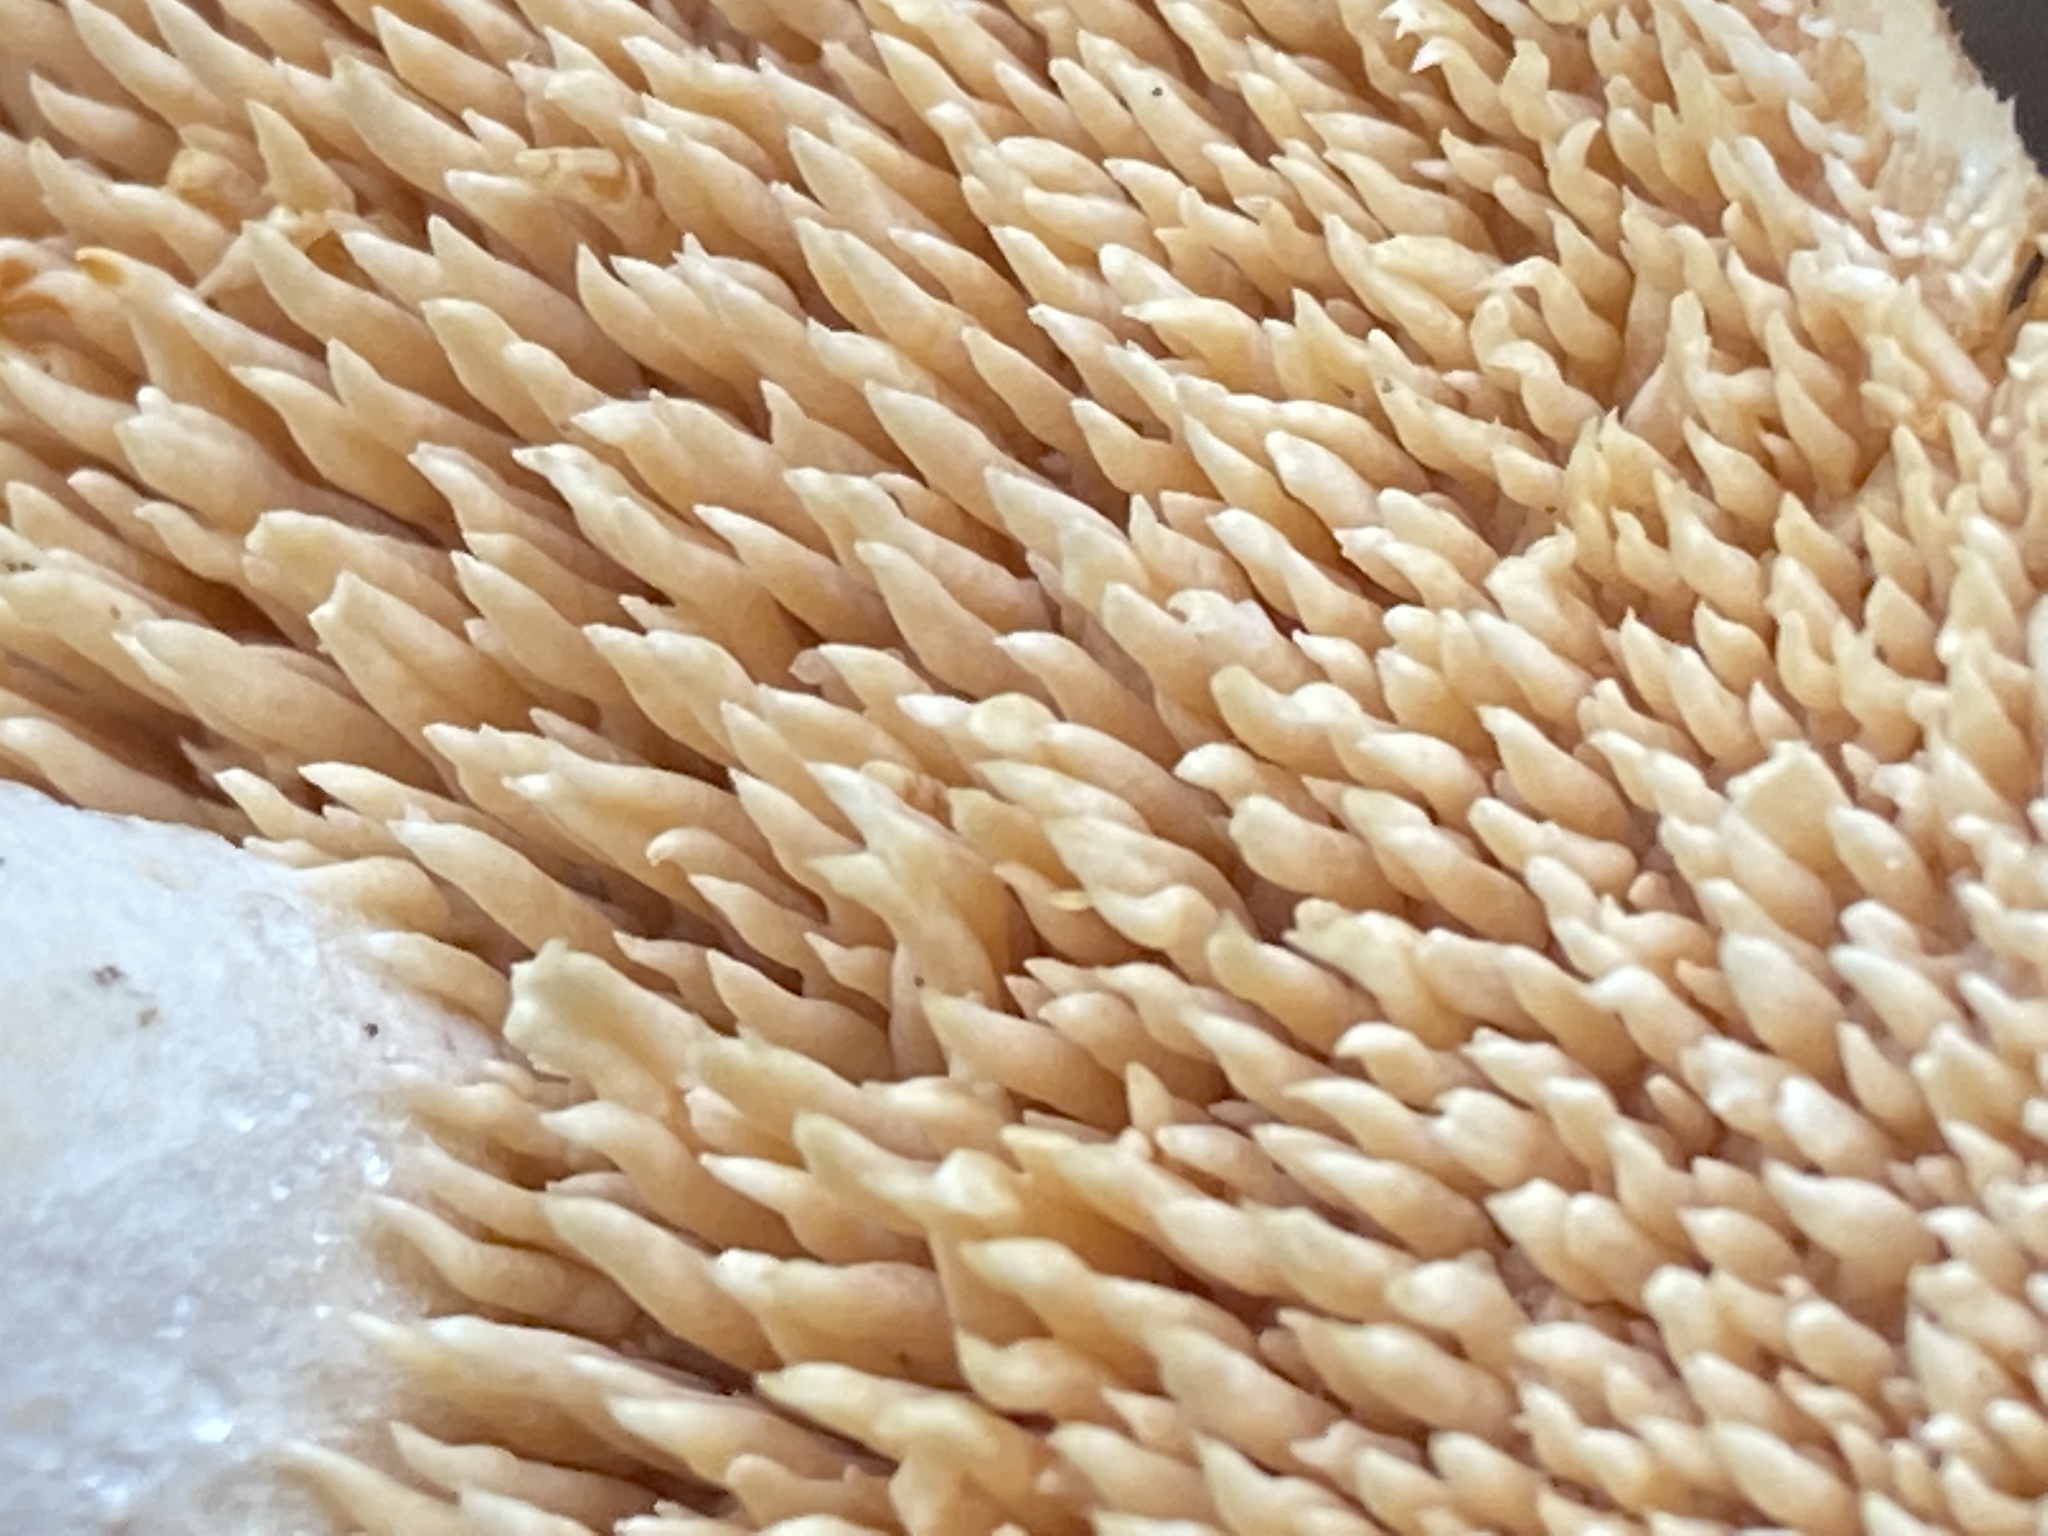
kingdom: Fungi
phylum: Basidiomycota
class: Agaricomycetes
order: Cantharellales
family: Hydnaceae
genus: Hydnum
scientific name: Hydnum
